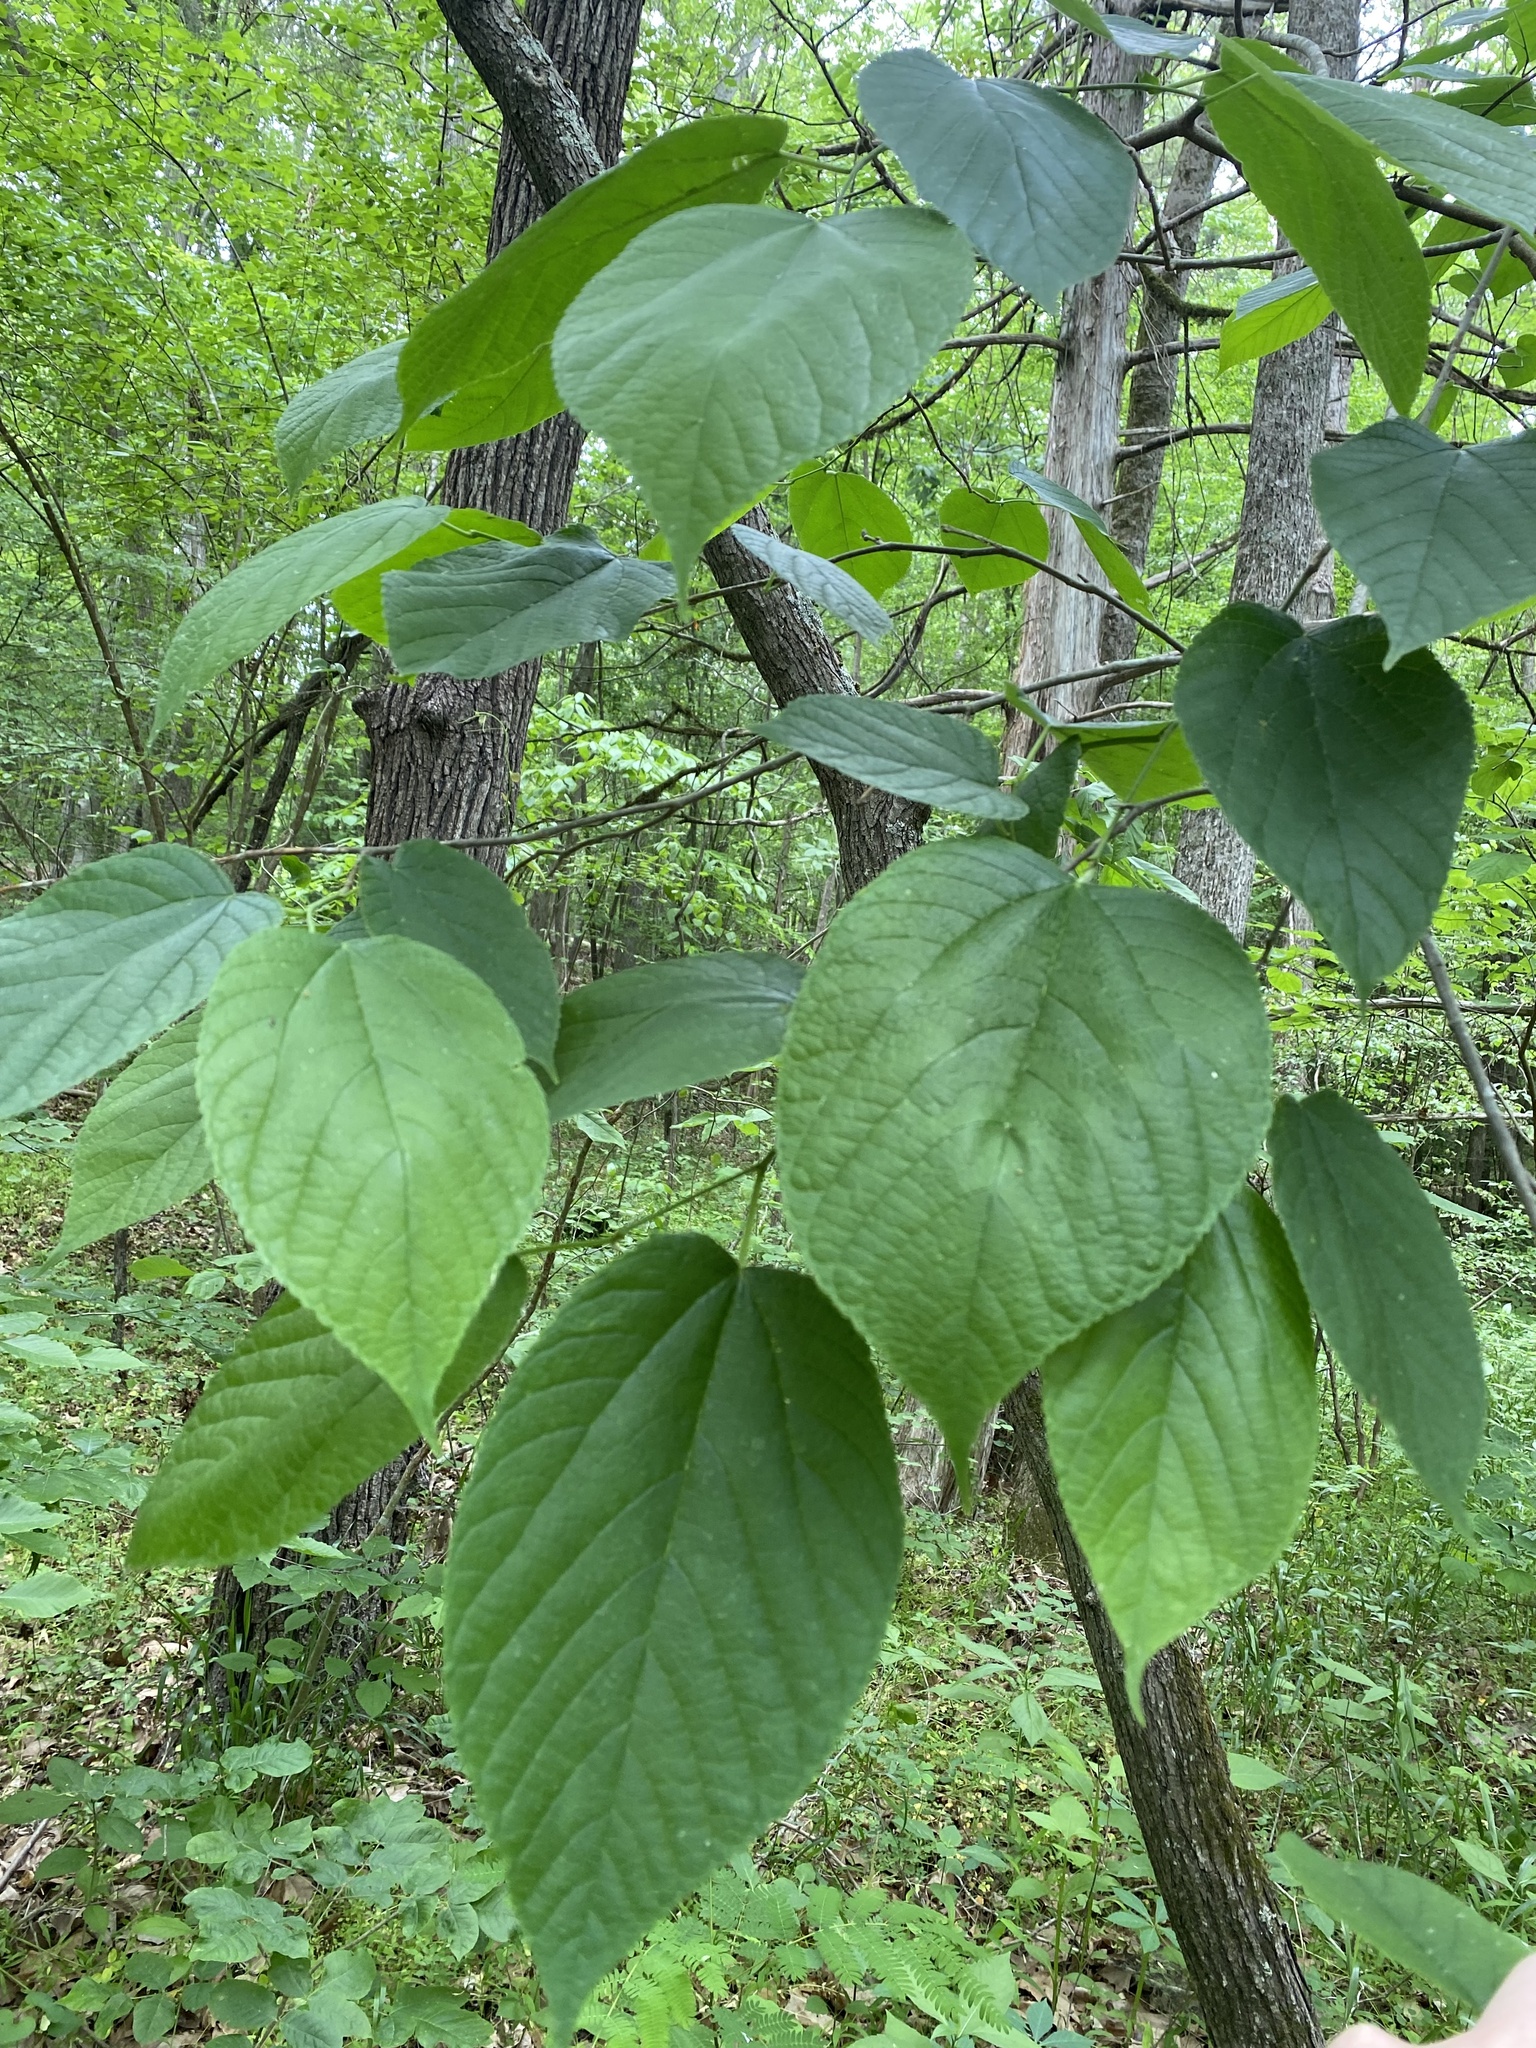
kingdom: Plantae
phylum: Tracheophyta
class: Magnoliopsida
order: Rosales
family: Moraceae
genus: Morus
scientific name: Morus rubra
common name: Red mulberry
